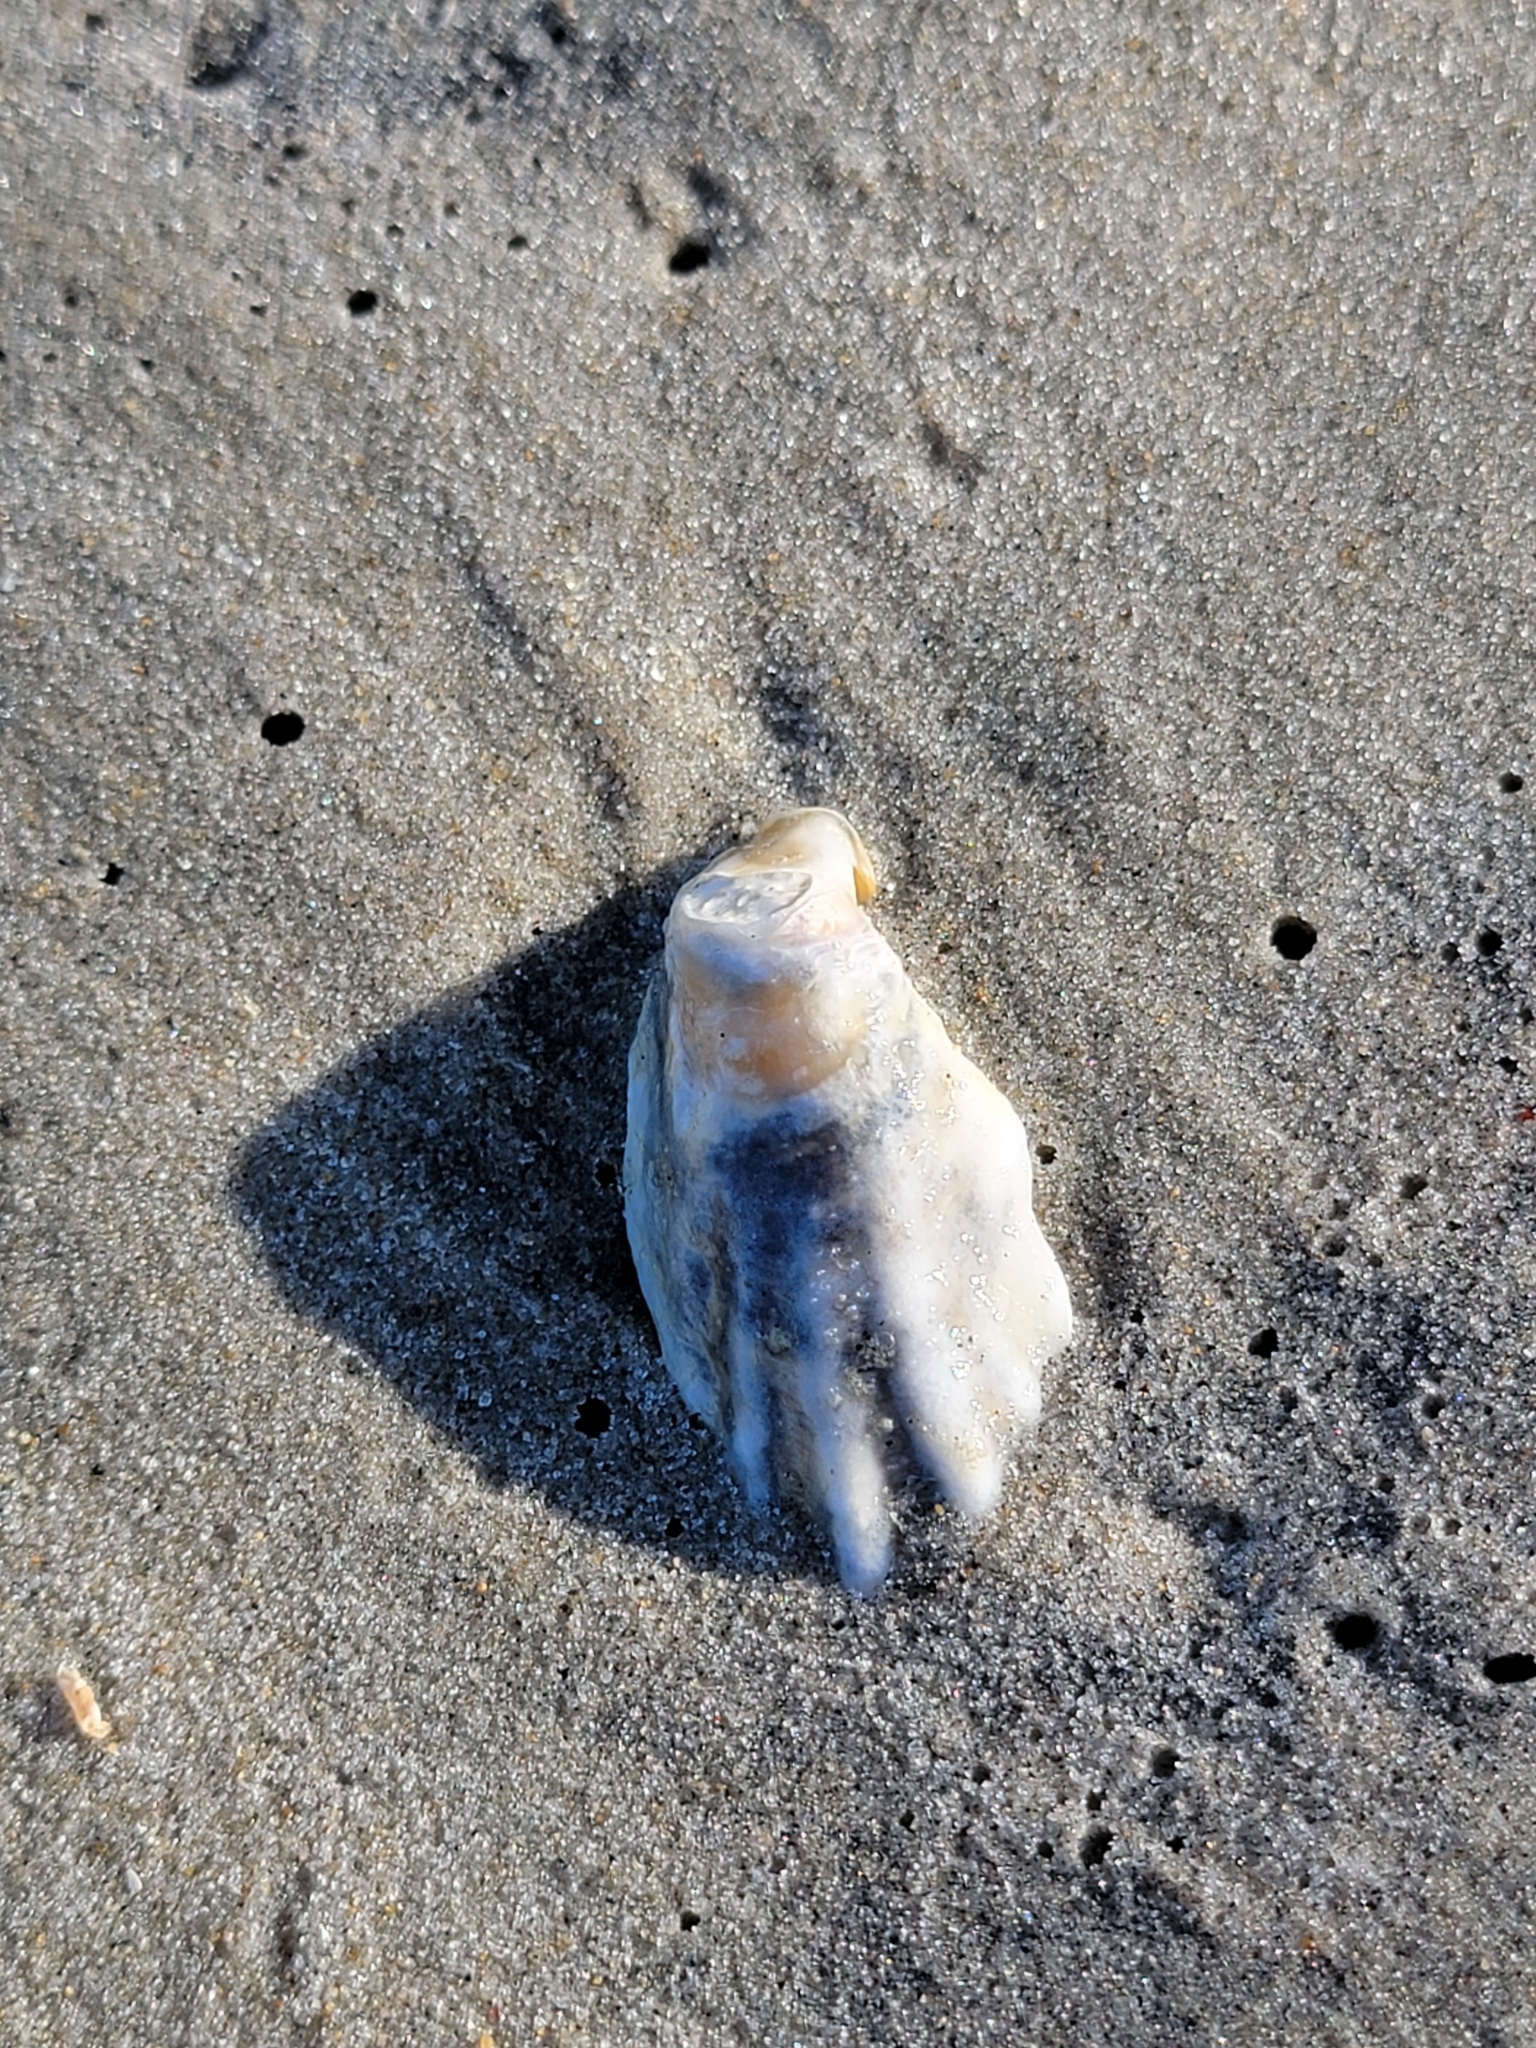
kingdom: Animalia
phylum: Mollusca
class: Bivalvia
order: Ostreida
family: Ostreidae
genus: Crassostrea
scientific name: Crassostrea virginica
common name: American oyster
